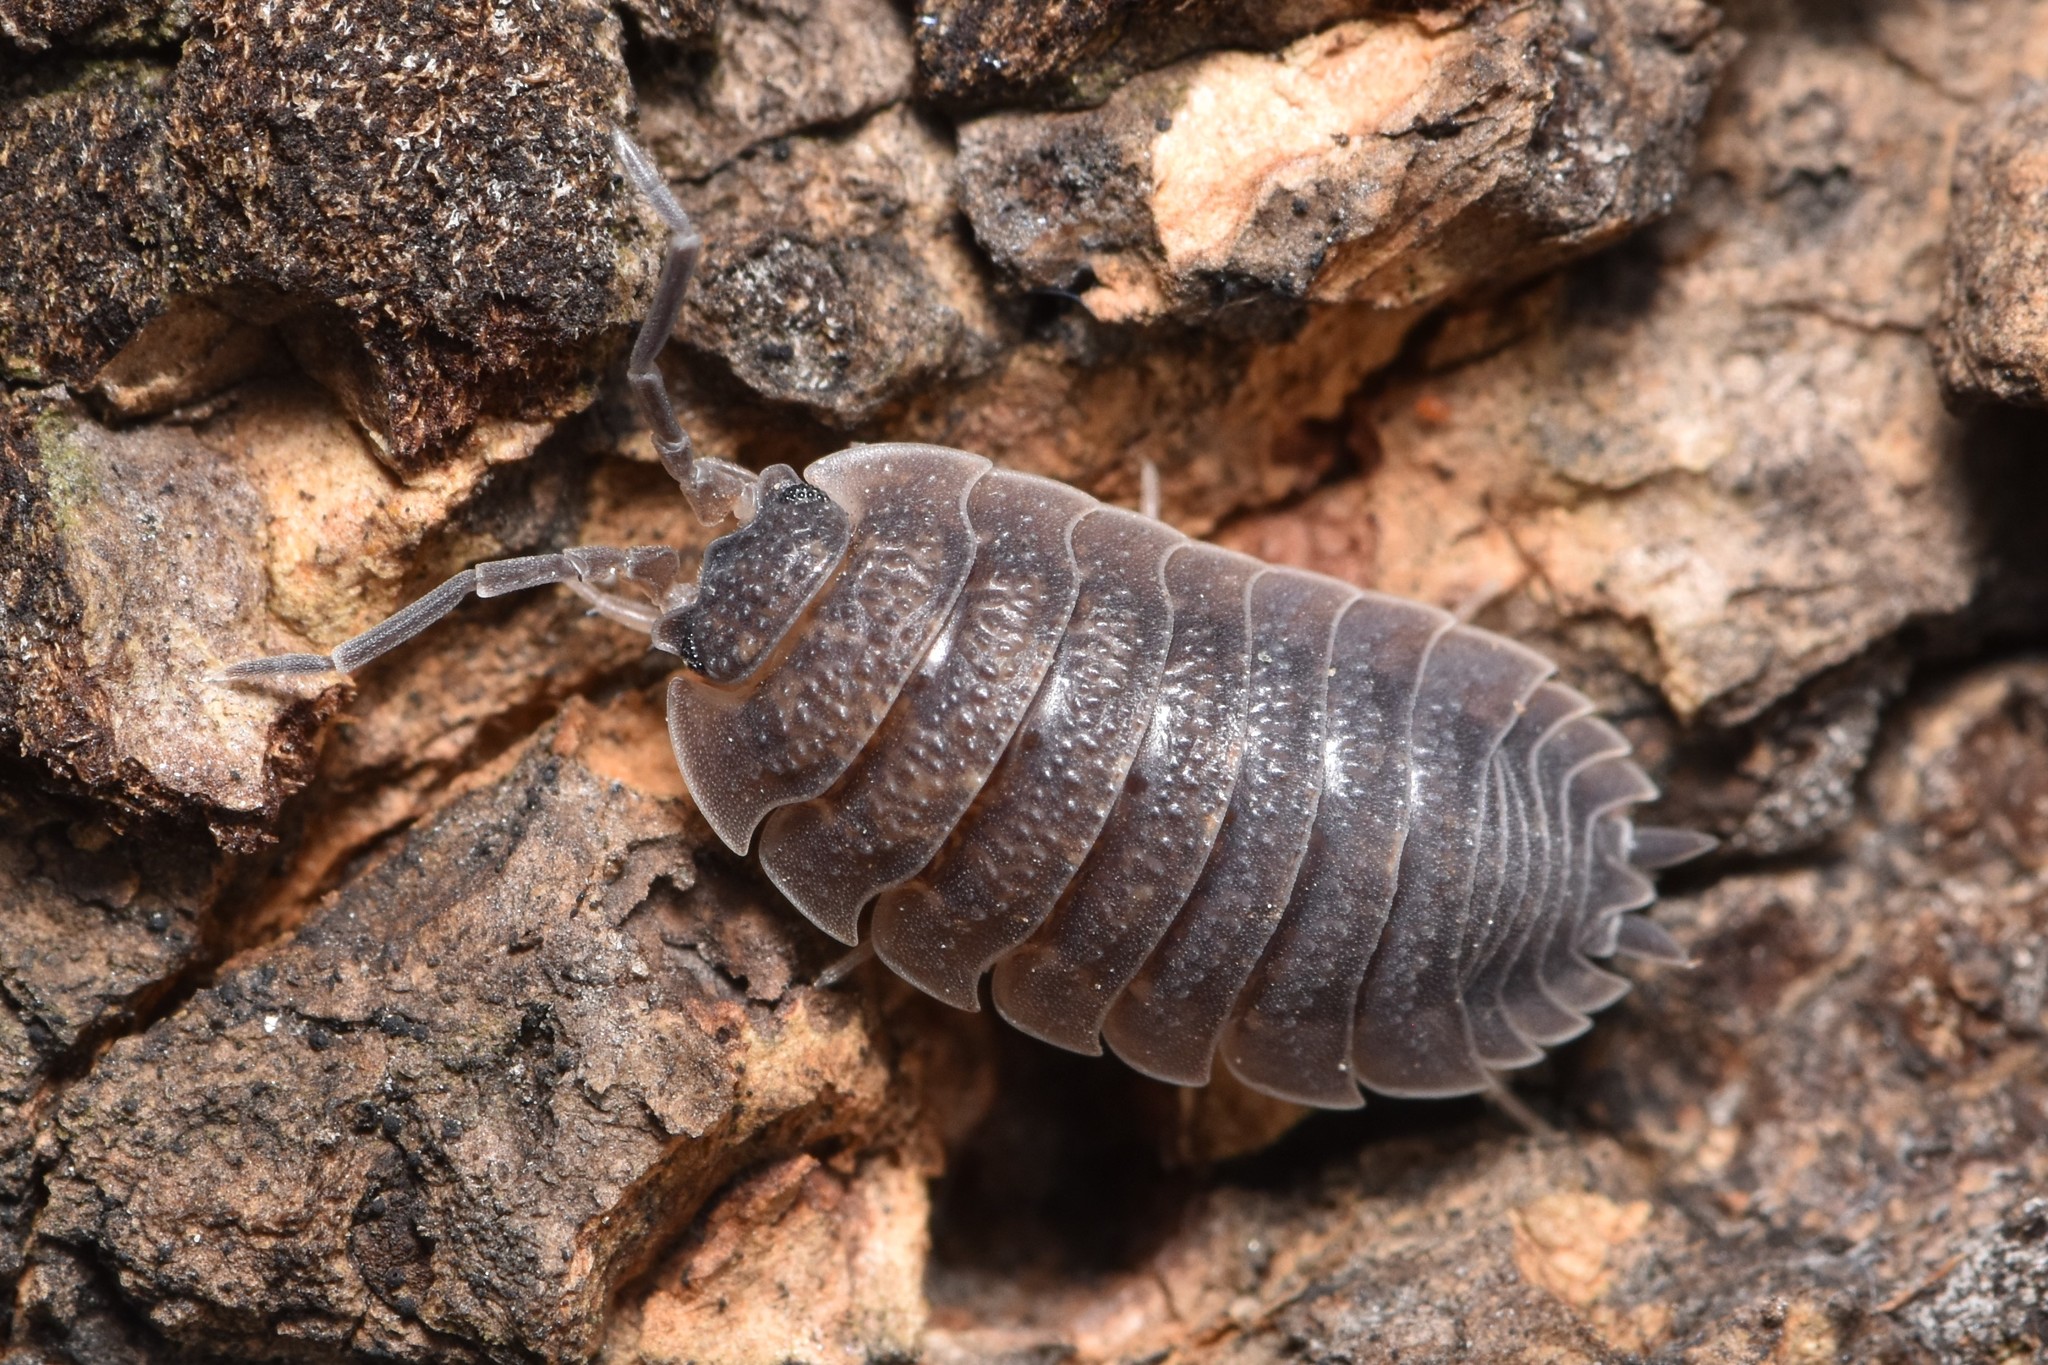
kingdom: Animalia
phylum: Arthropoda
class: Malacostraca
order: Isopoda
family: Porcellionidae
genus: Porcellio
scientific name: Porcellio scaber
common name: Common rough woodlouse
